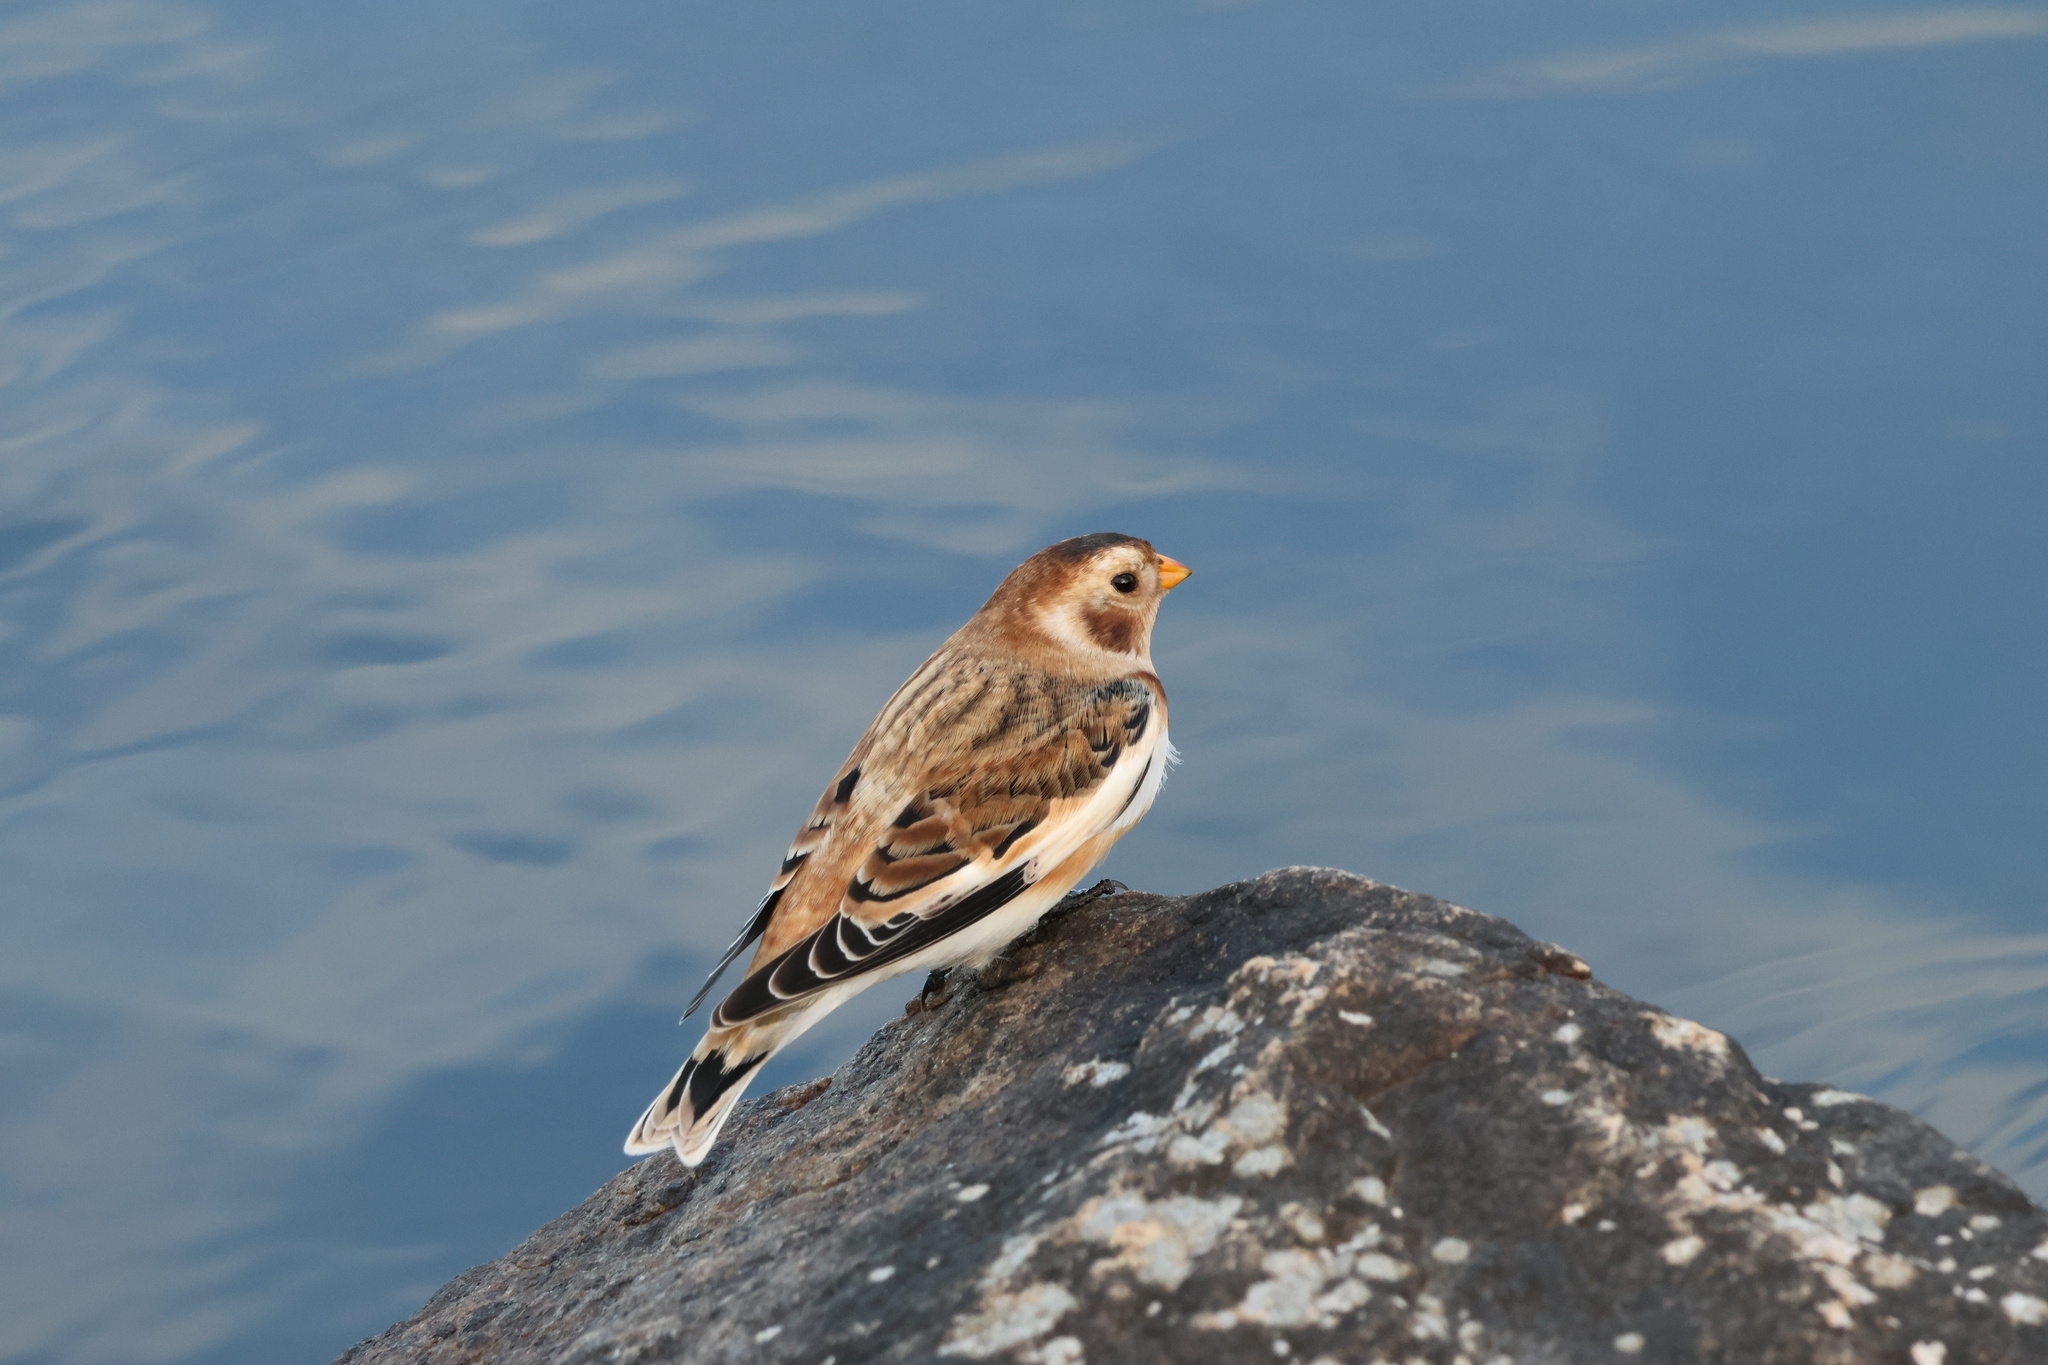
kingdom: Animalia
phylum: Chordata
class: Aves
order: Passeriformes
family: Calcariidae
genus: Plectrophenax
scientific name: Plectrophenax nivalis
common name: Snow bunting
